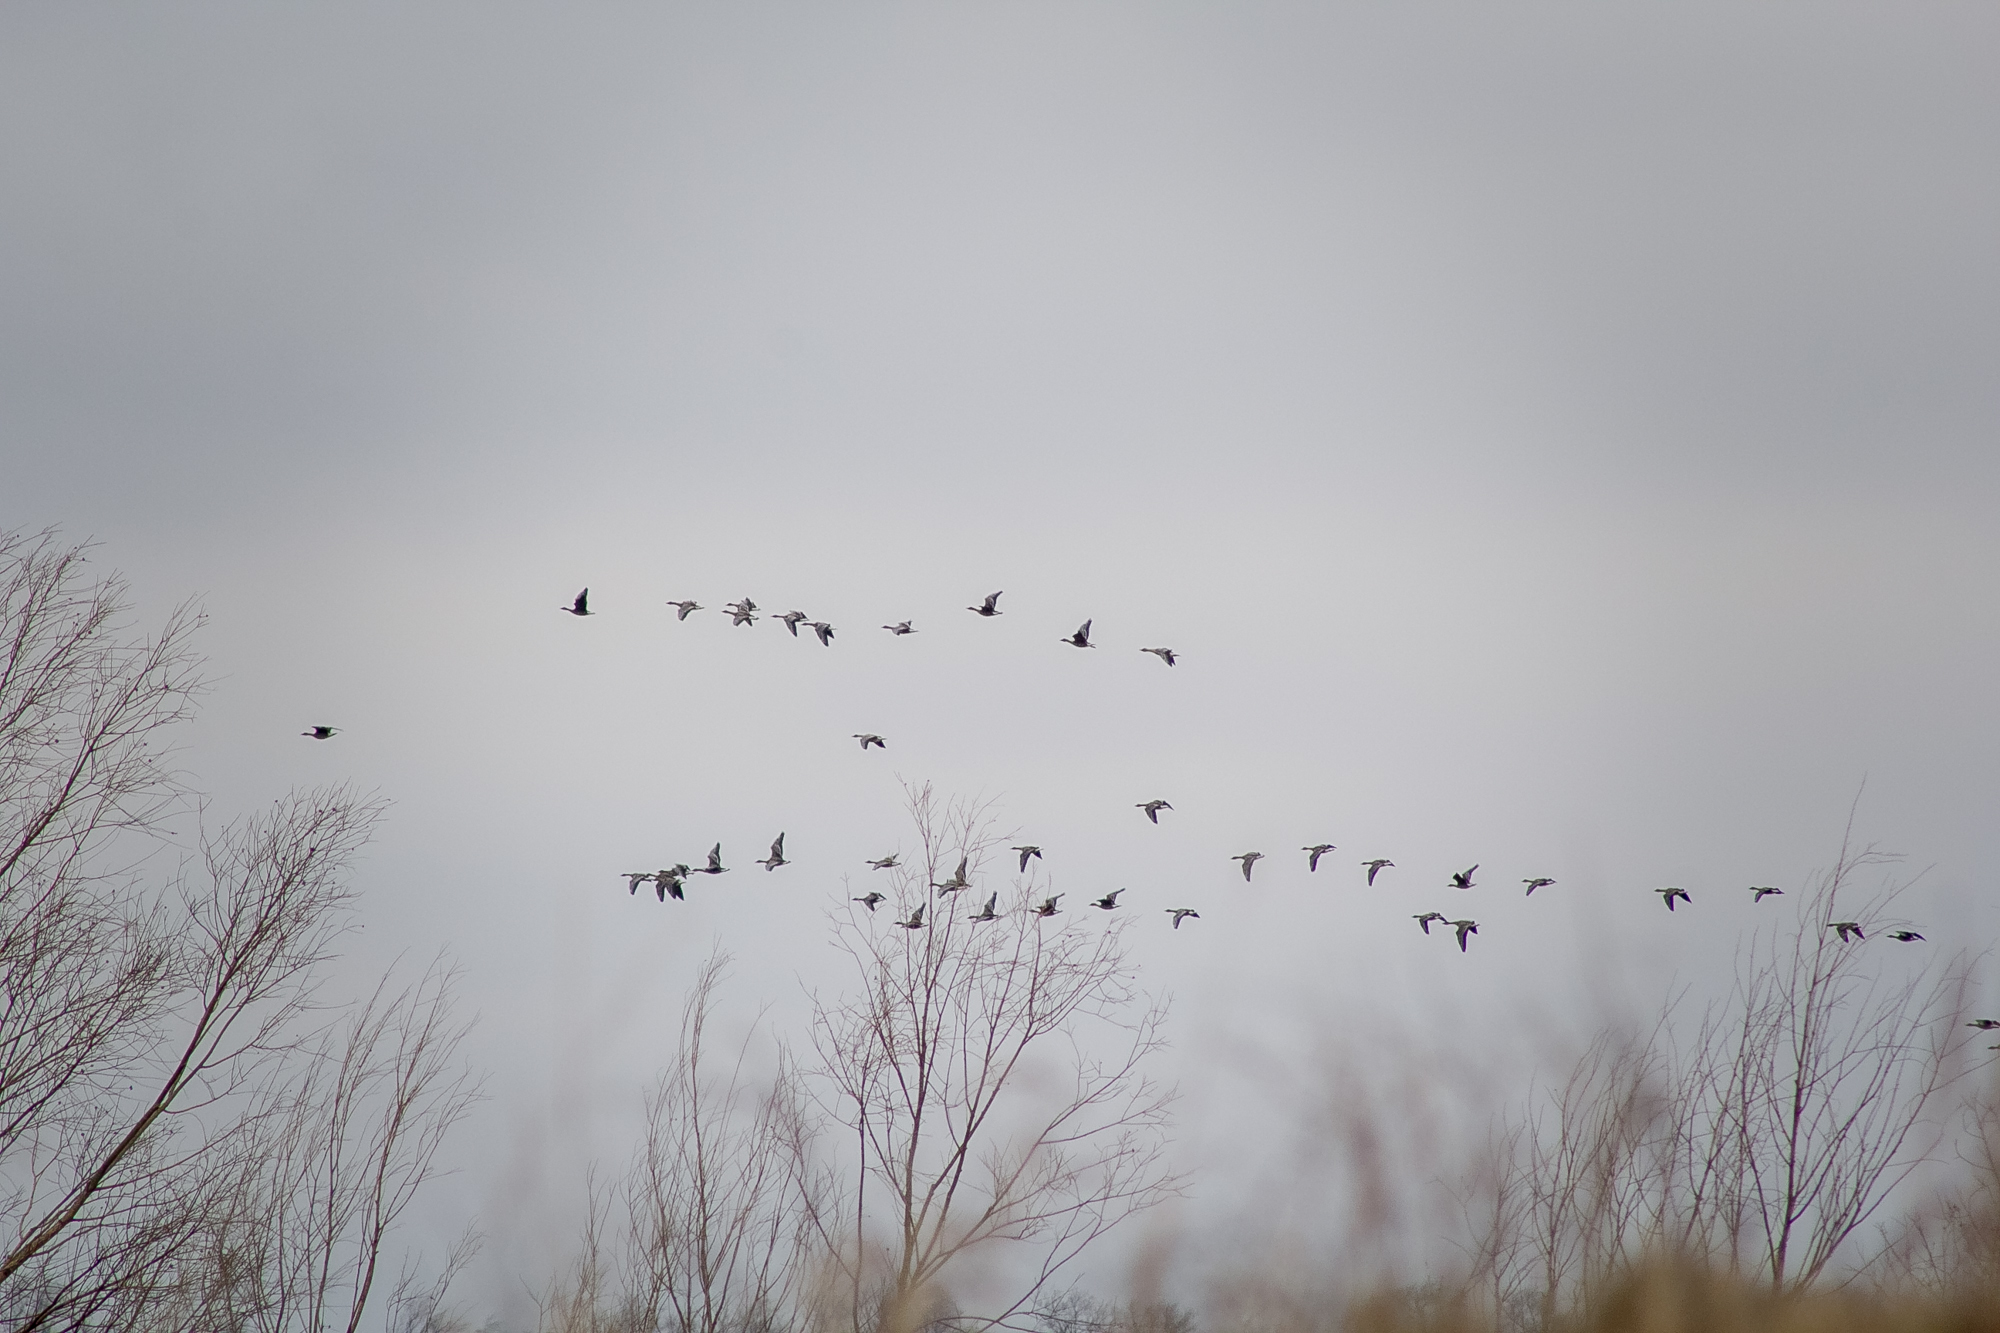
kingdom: Animalia
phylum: Chordata
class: Aves
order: Anseriformes
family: Anatidae
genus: Anser
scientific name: Anser fabalis
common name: Bean goose
